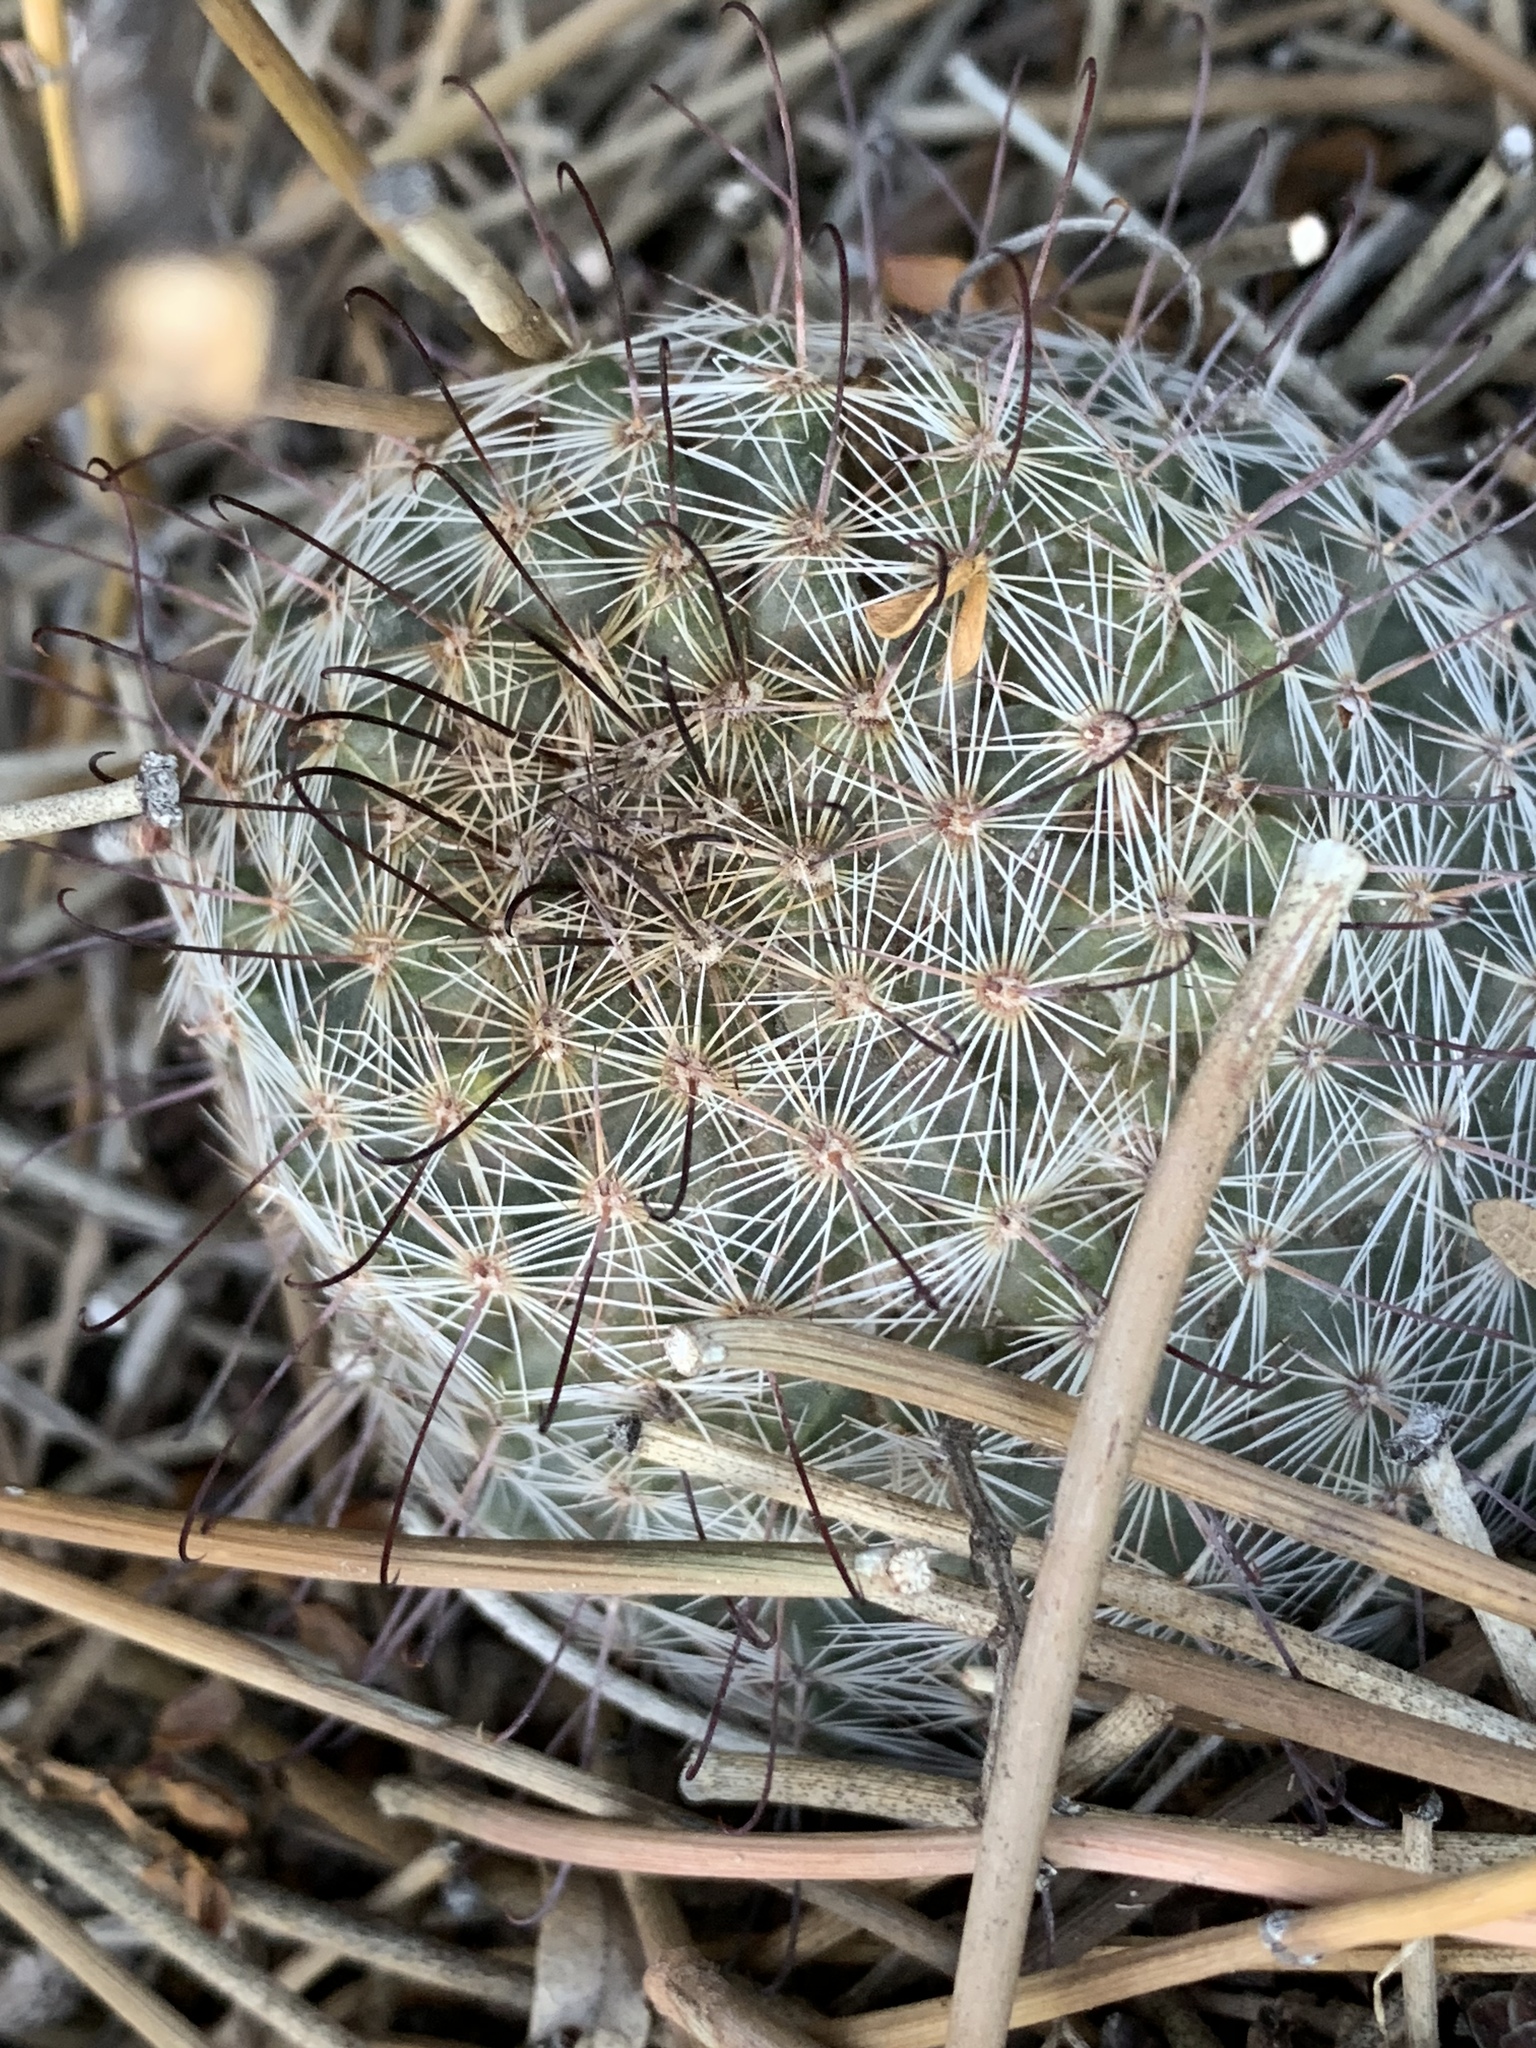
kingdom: Plantae
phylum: Tracheophyta
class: Magnoliopsida
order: Caryophyllales
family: Cactaceae
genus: Cochemiea
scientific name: Cochemiea grahamii
